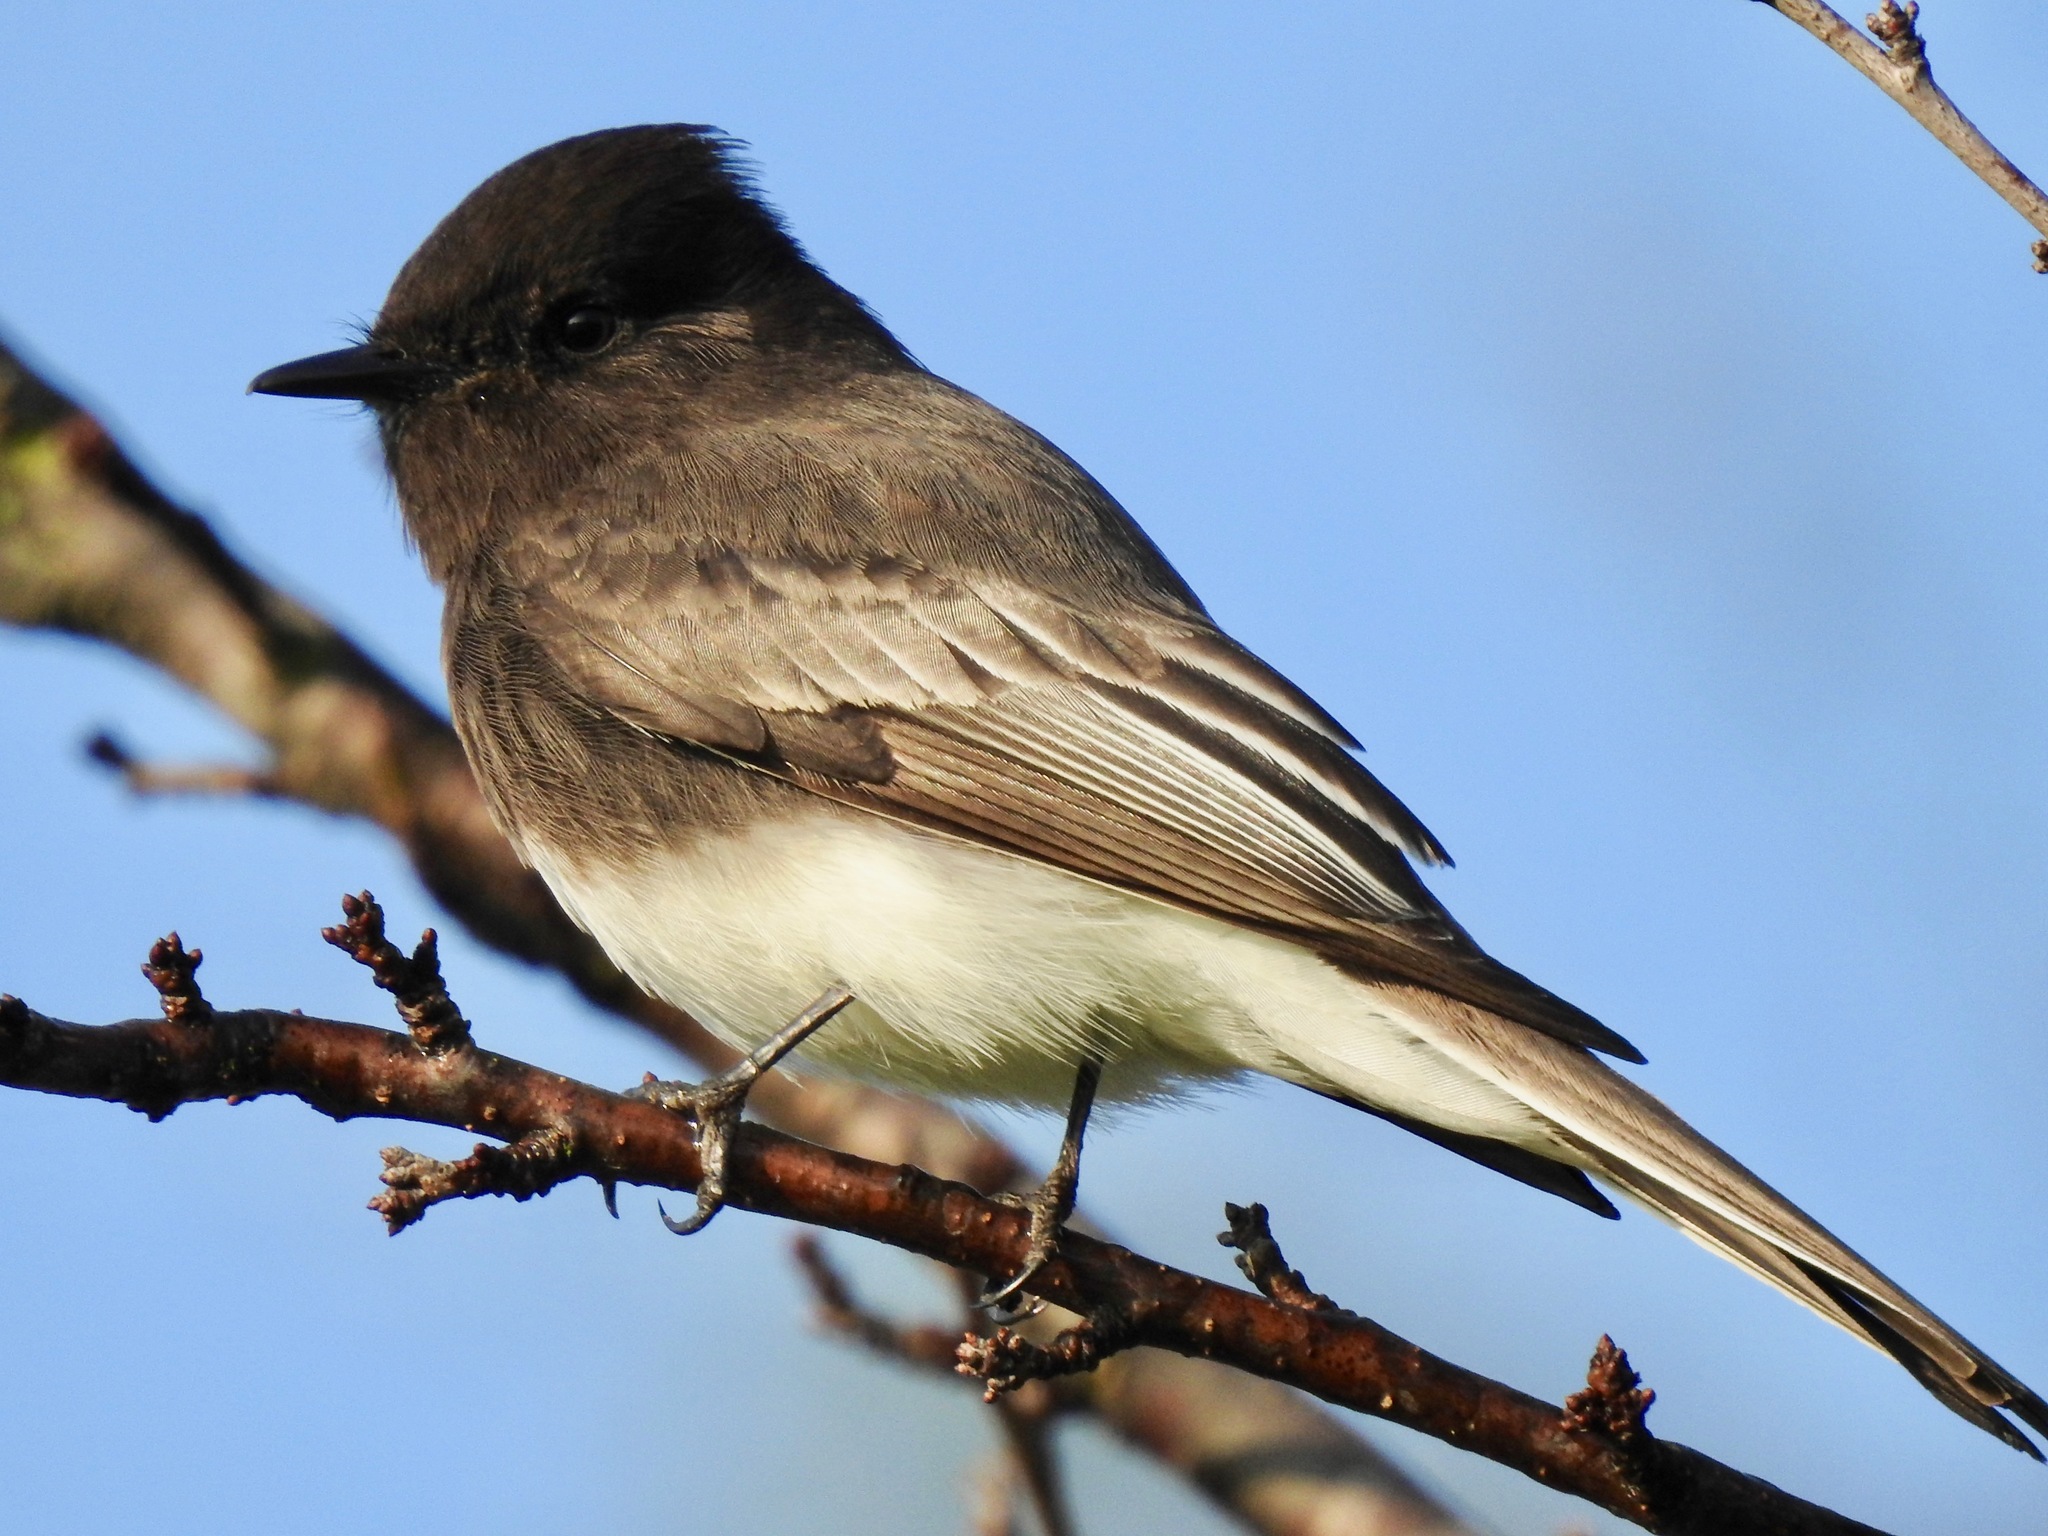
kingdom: Animalia
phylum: Chordata
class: Aves
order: Passeriformes
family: Tyrannidae
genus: Sayornis
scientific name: Sayornis nigricans
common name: Black phoebe
